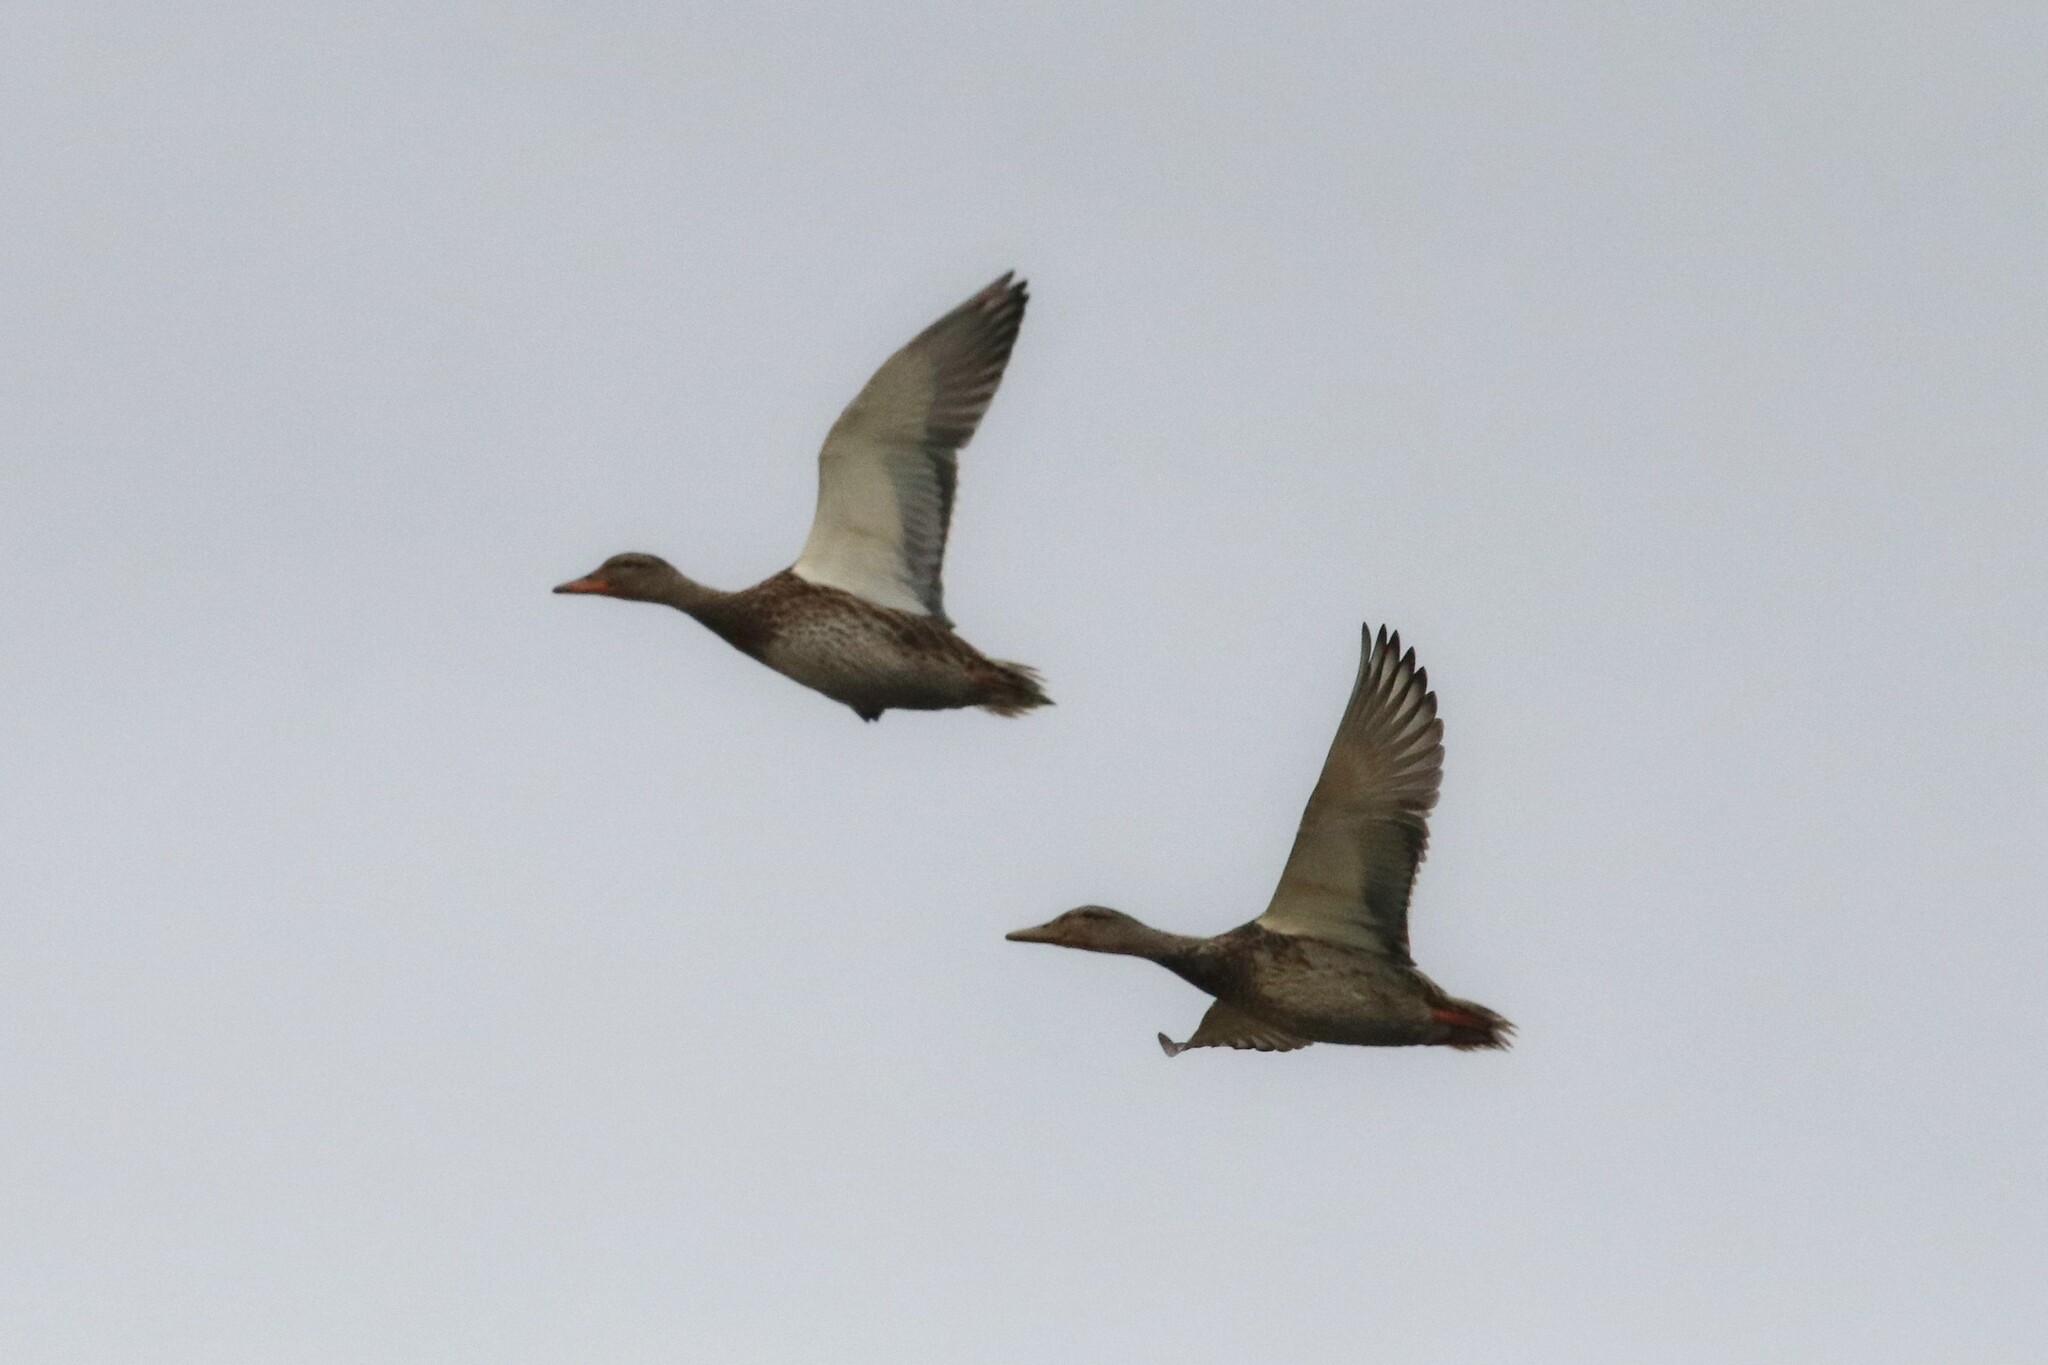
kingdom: Animalia
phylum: Chordata
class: Aves
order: Anseriformes
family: Anatidae
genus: Anas
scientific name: Anas platyrhynchos
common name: Mallard
